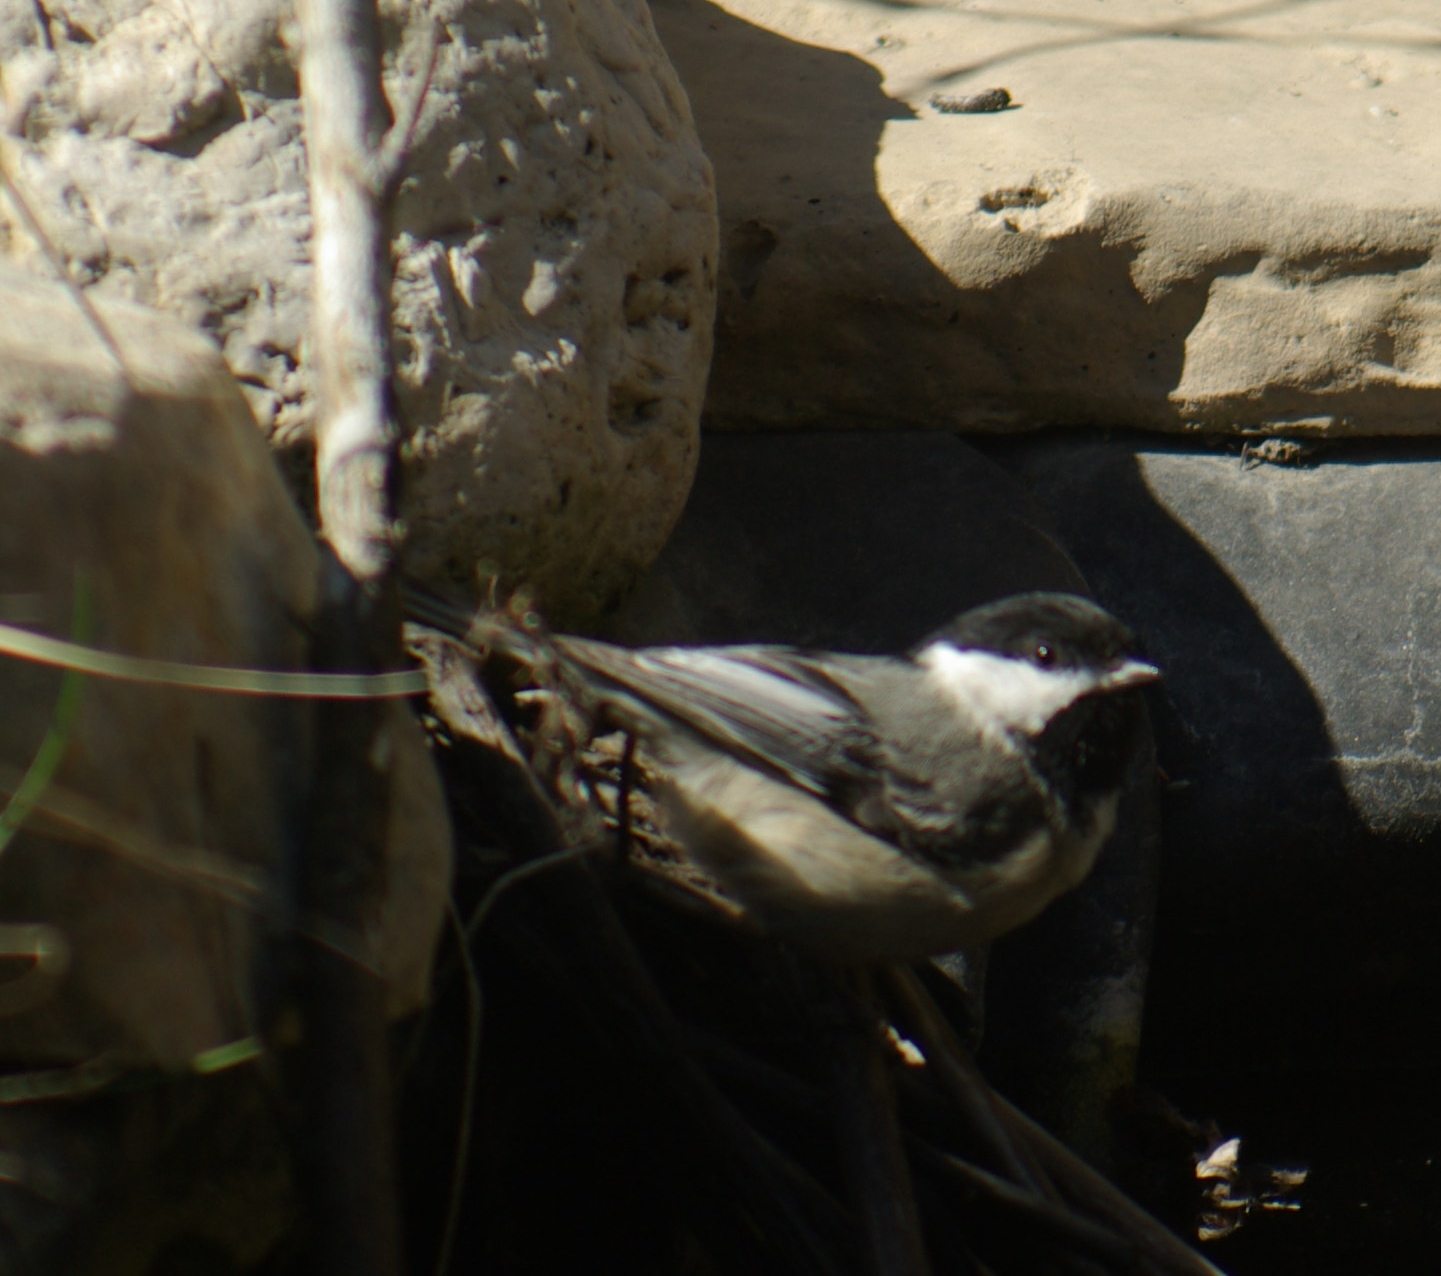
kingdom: Animalia
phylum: Chordata
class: Aves
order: Passeriformes
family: Paridae
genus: Poecile
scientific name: Poecile atricapillus
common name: Black-capped chickadee
